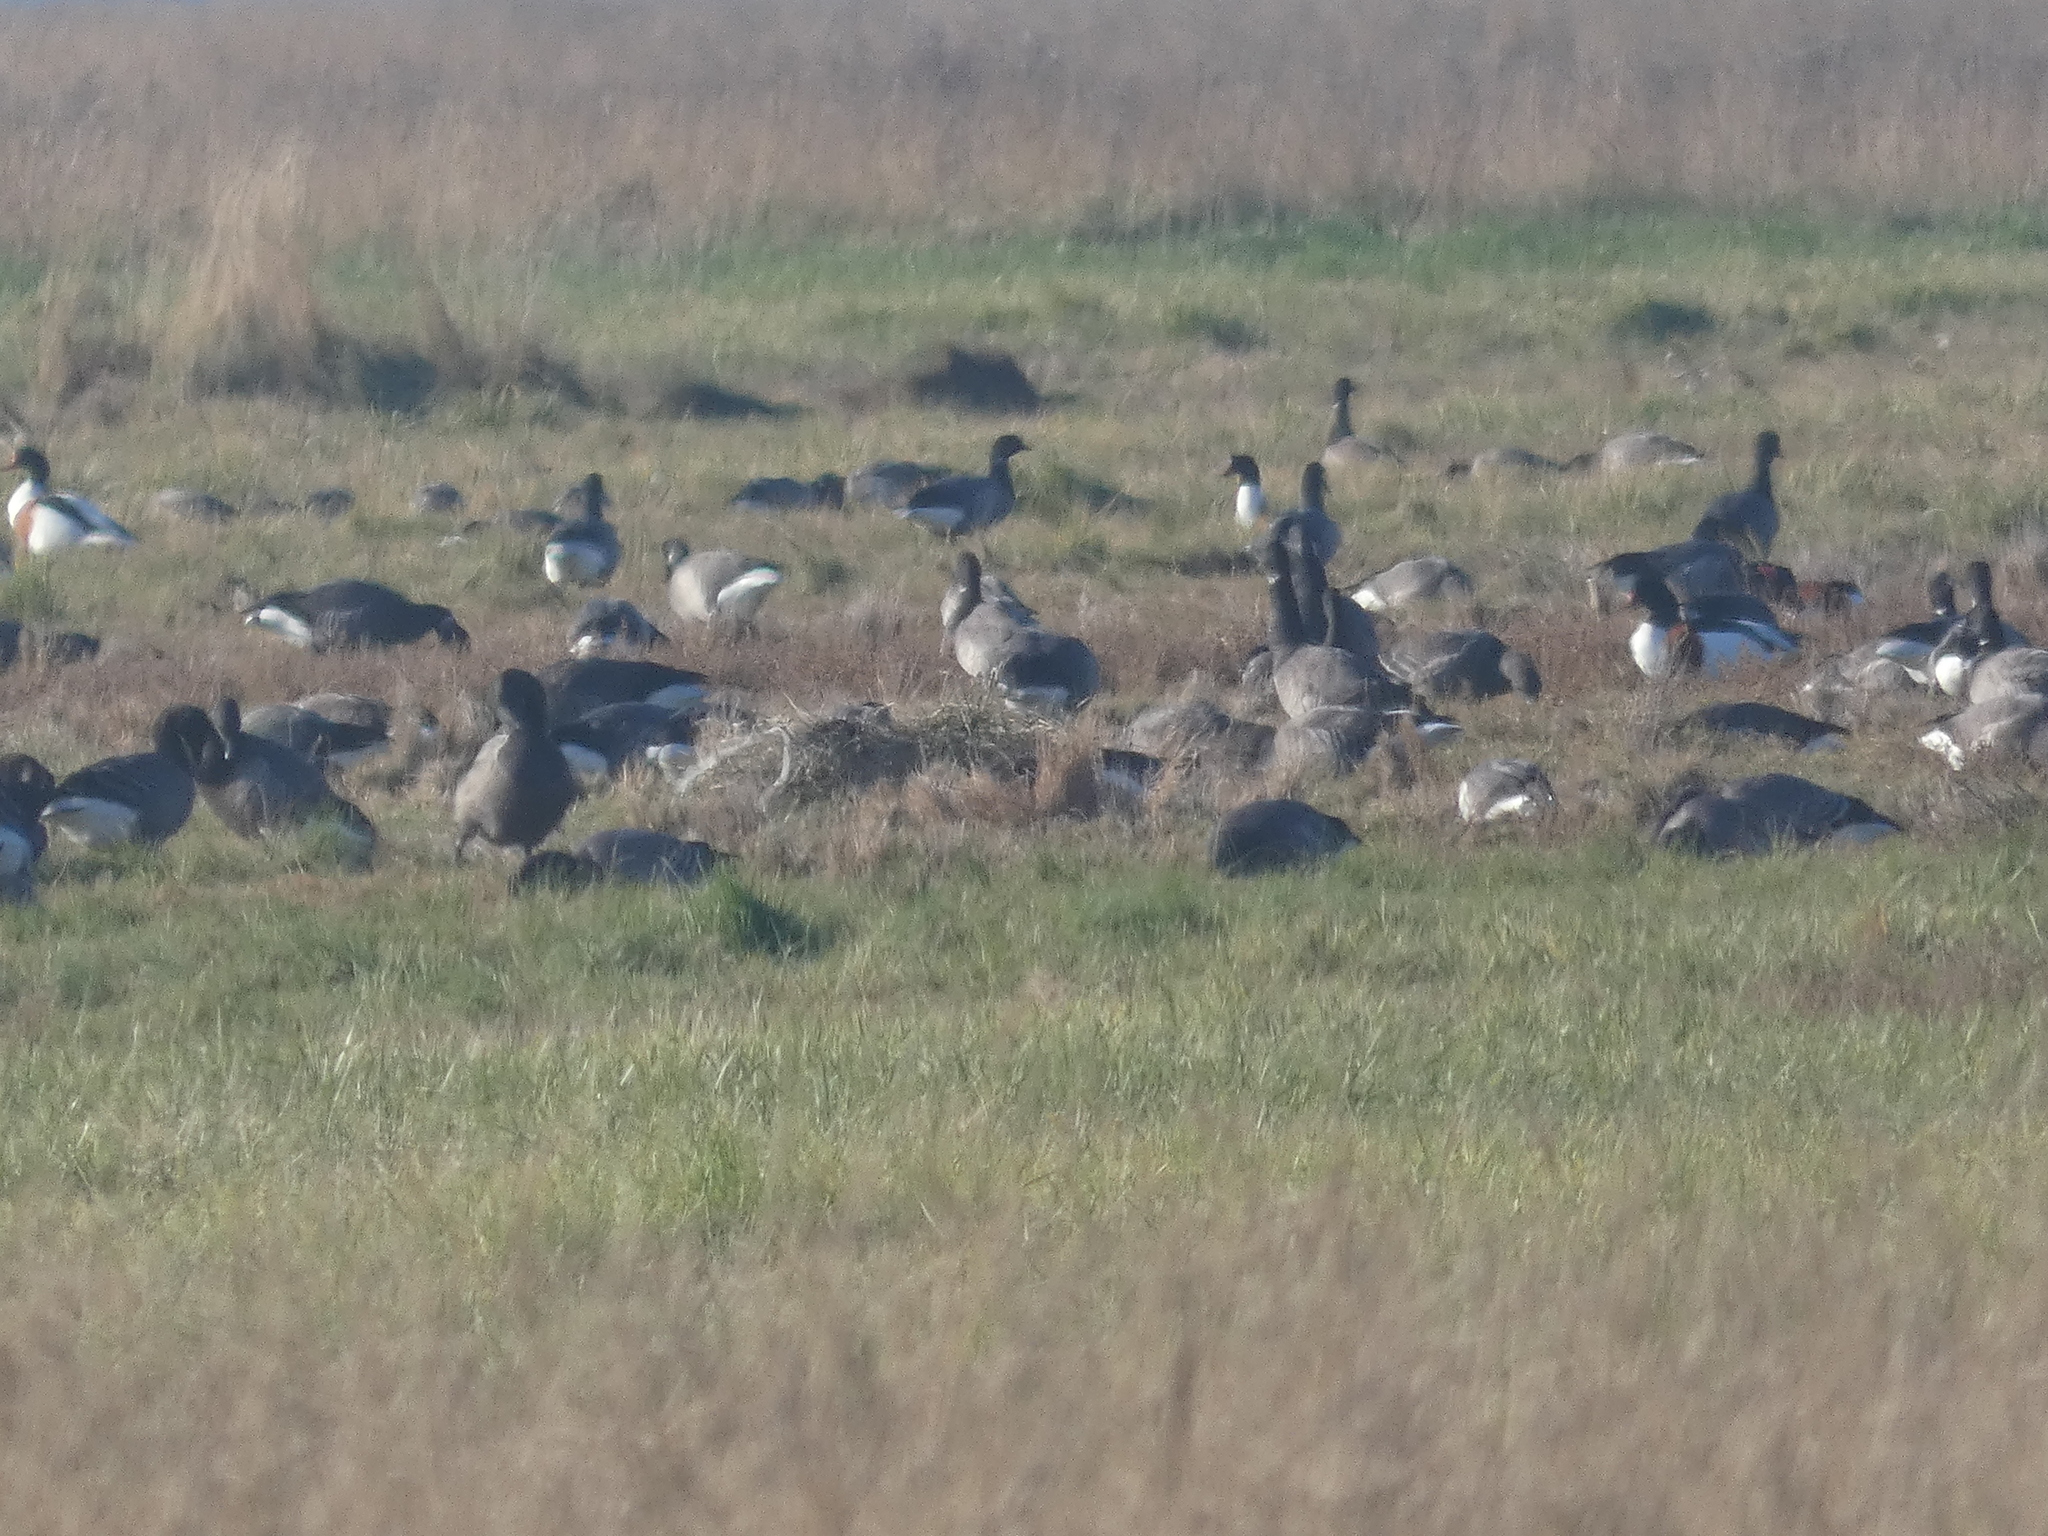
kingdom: Animalia
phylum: Chordata
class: Aves
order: Anseriformes
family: Anatidae
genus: Branta
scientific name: Branta bernicla
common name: Brant goose
